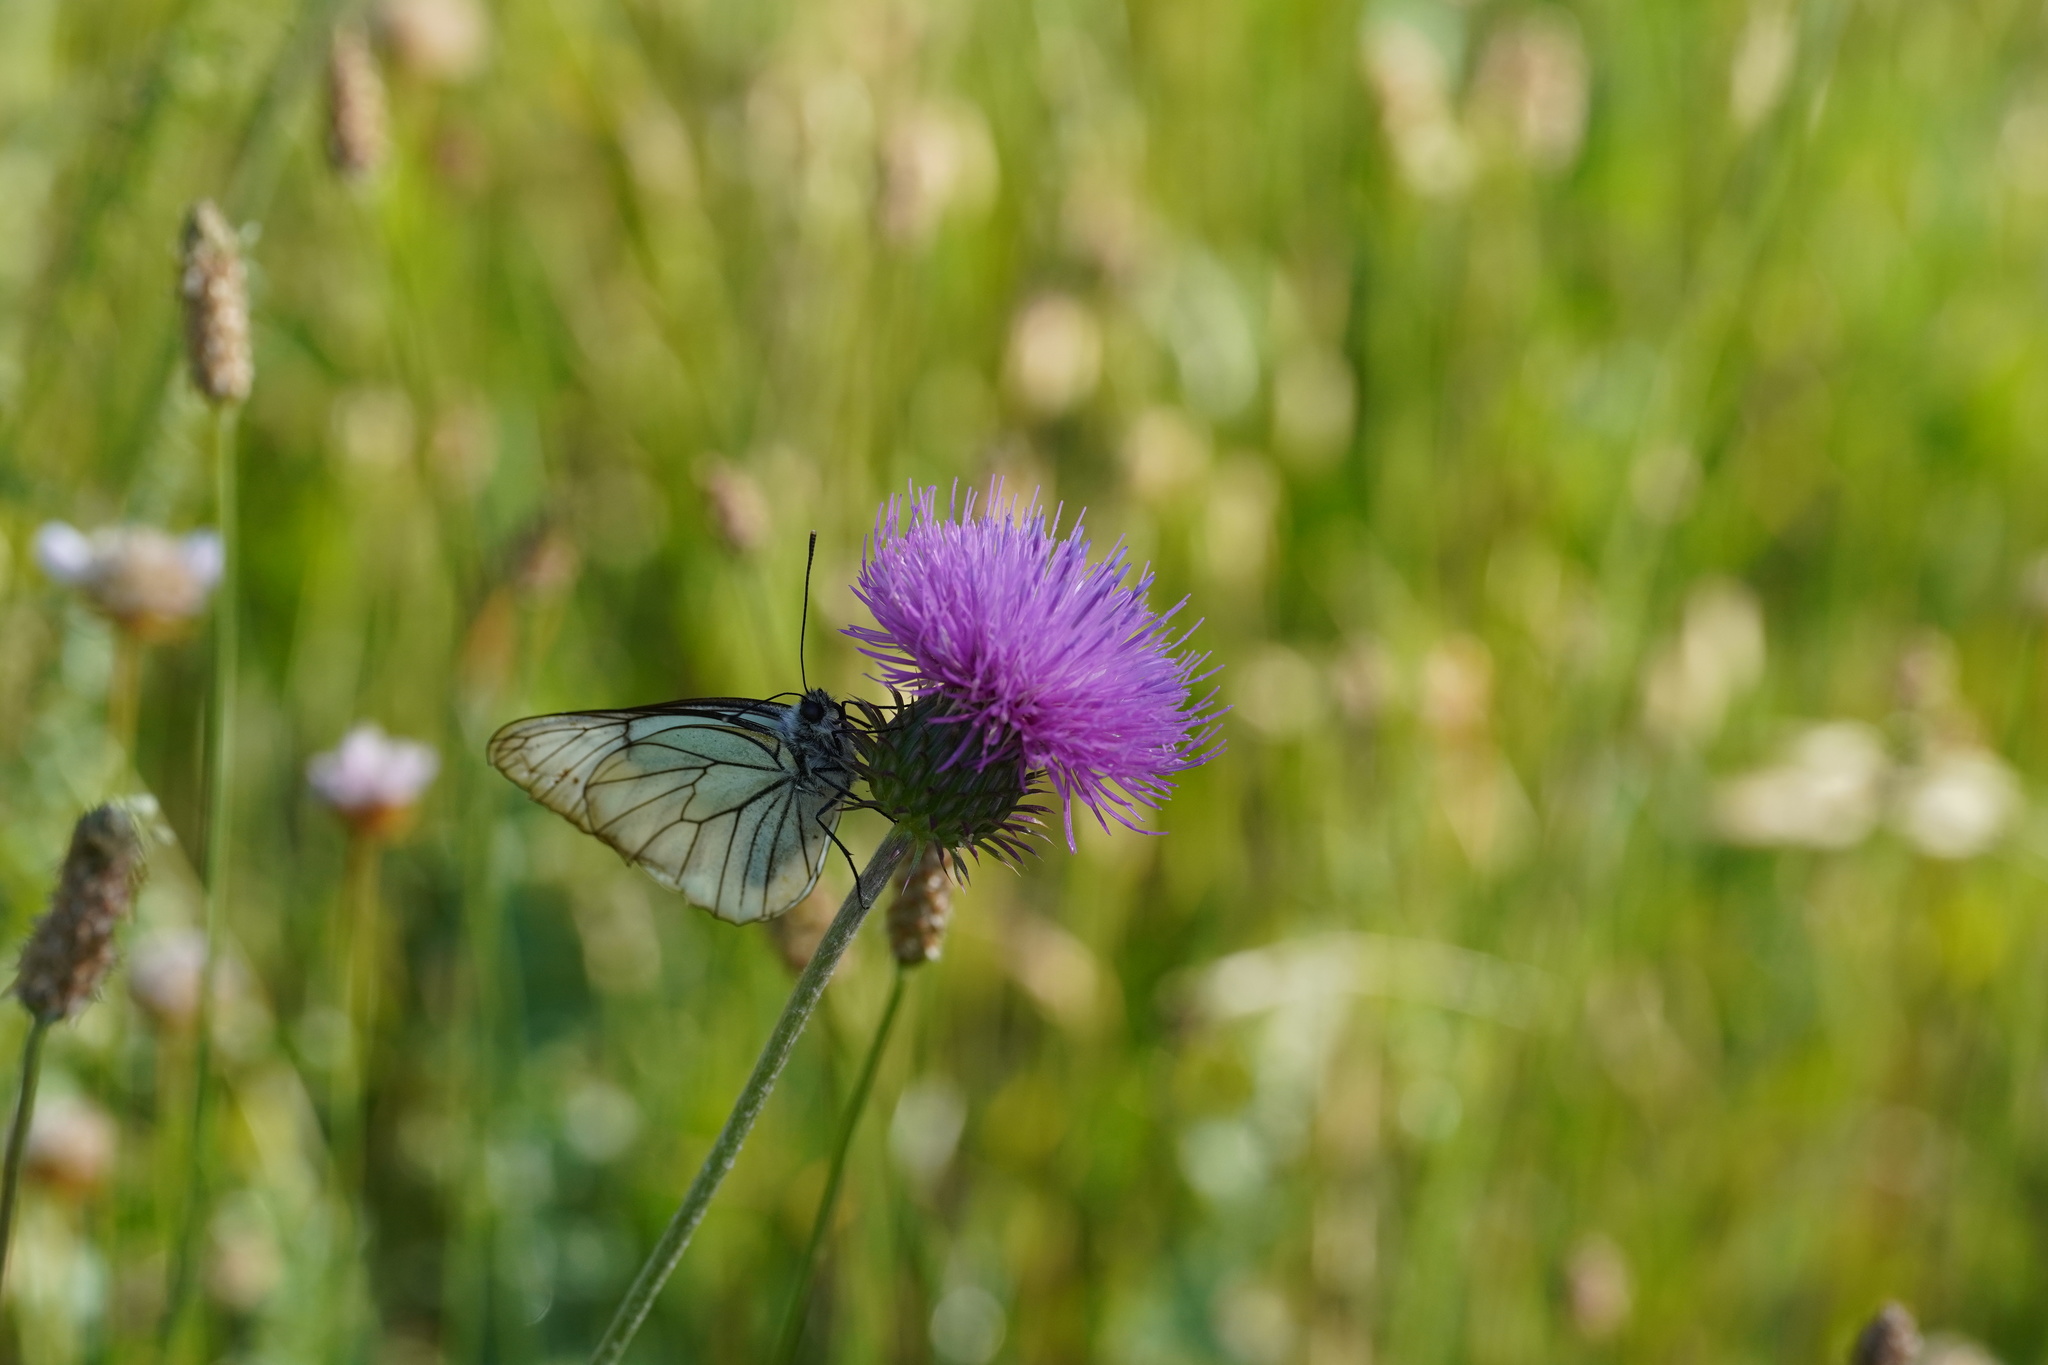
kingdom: Animalia
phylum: Arthropoda
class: Insecta
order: Lepidoptera
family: Pieridae
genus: Aporia
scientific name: Aporia crataegi
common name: Black-veined white
